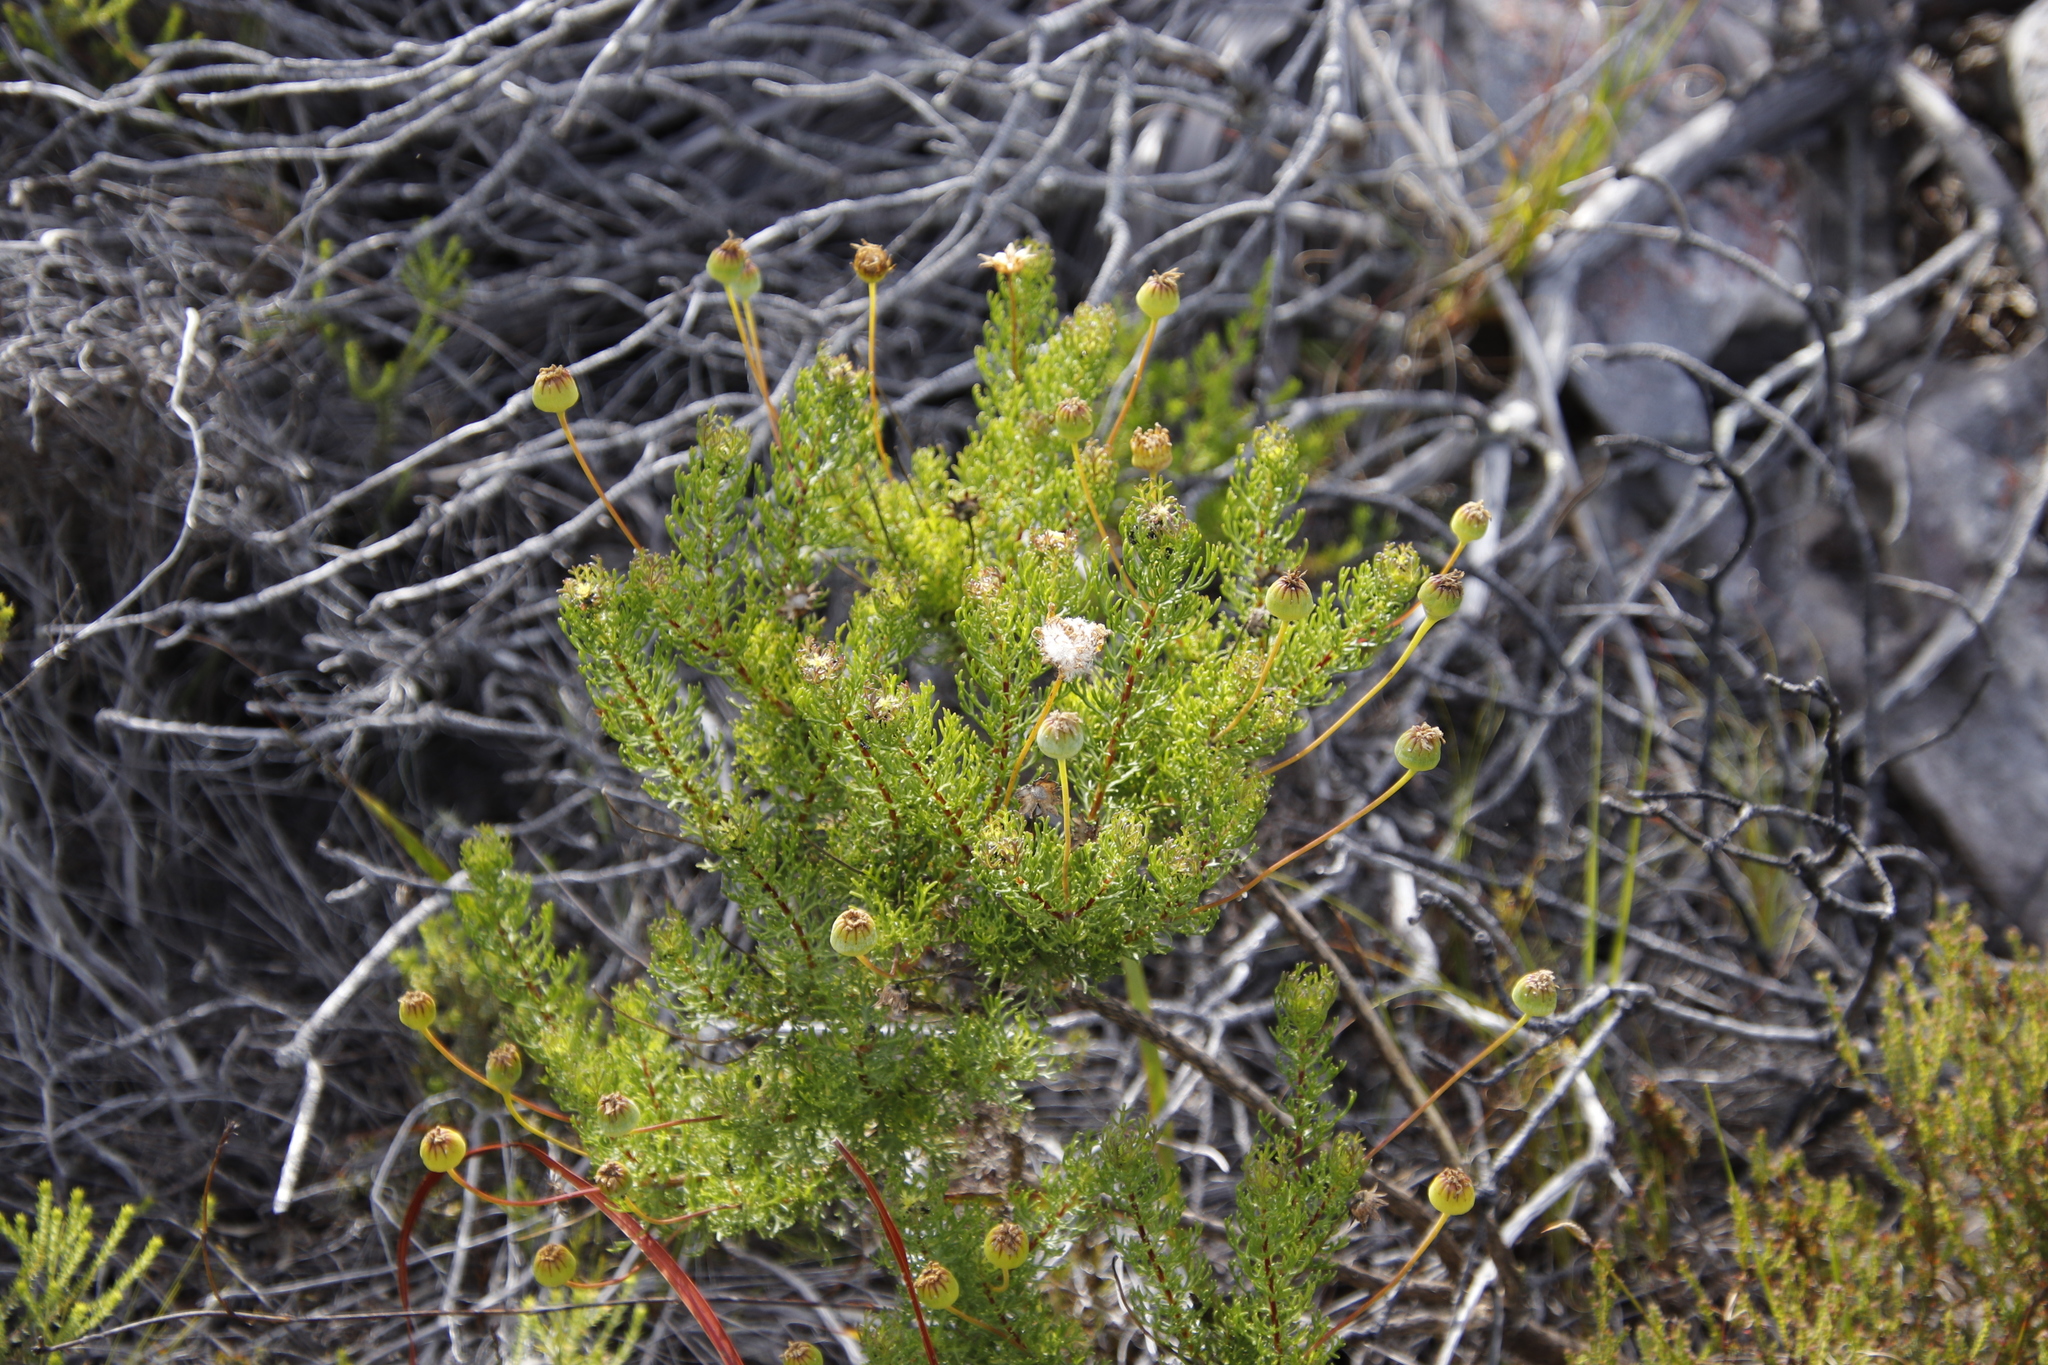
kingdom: Plantae
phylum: Tracheophyta
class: Magnoliopsida
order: Asterales
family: Asteraceae
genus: Euryops
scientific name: Euryops abrotanifolius
